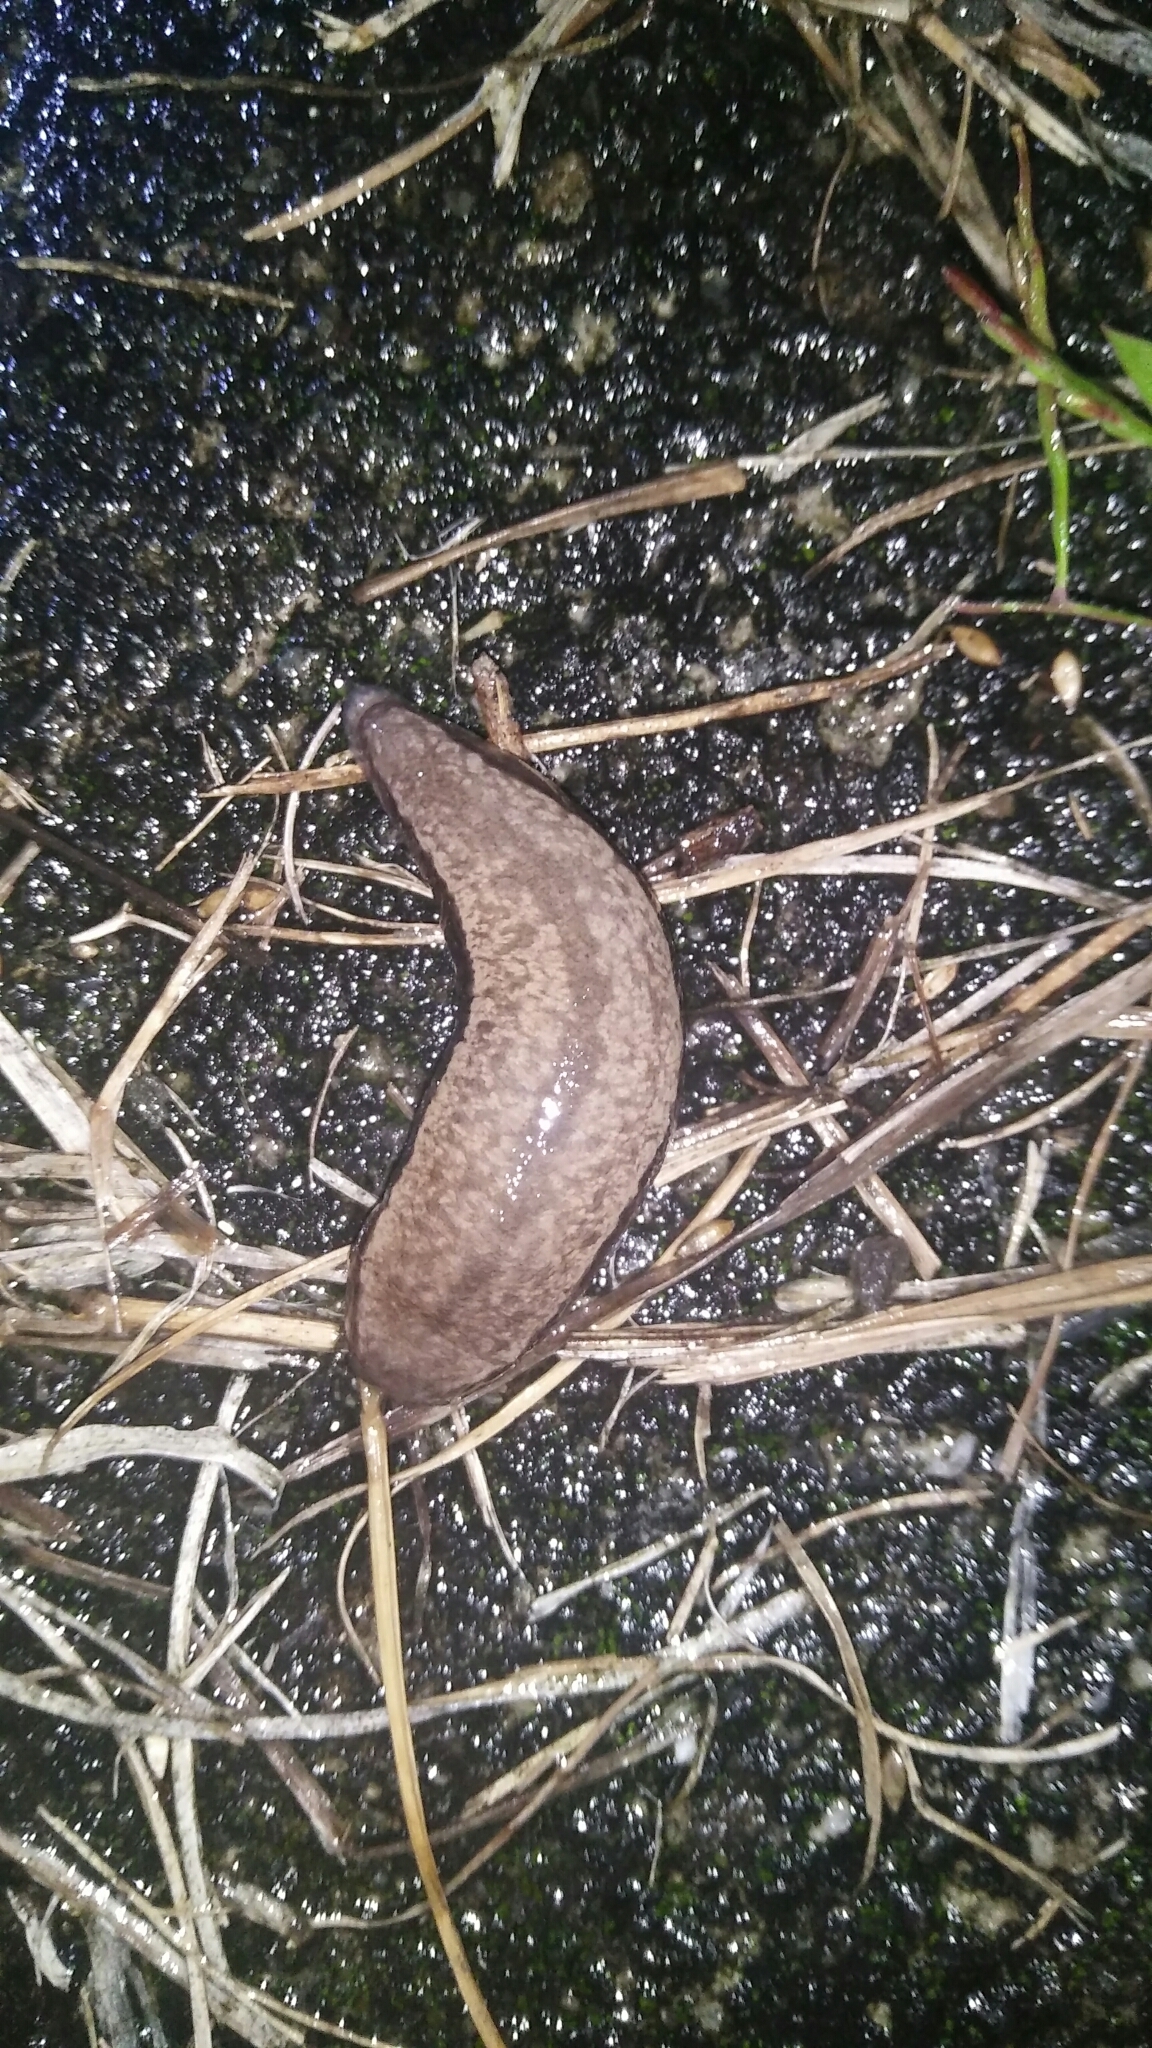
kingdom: Animalia
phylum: Mollusca
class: Gastropoda
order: Stylommatophora
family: Philomycidae
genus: Meghimatium
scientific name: Meghimatium bilineatum
